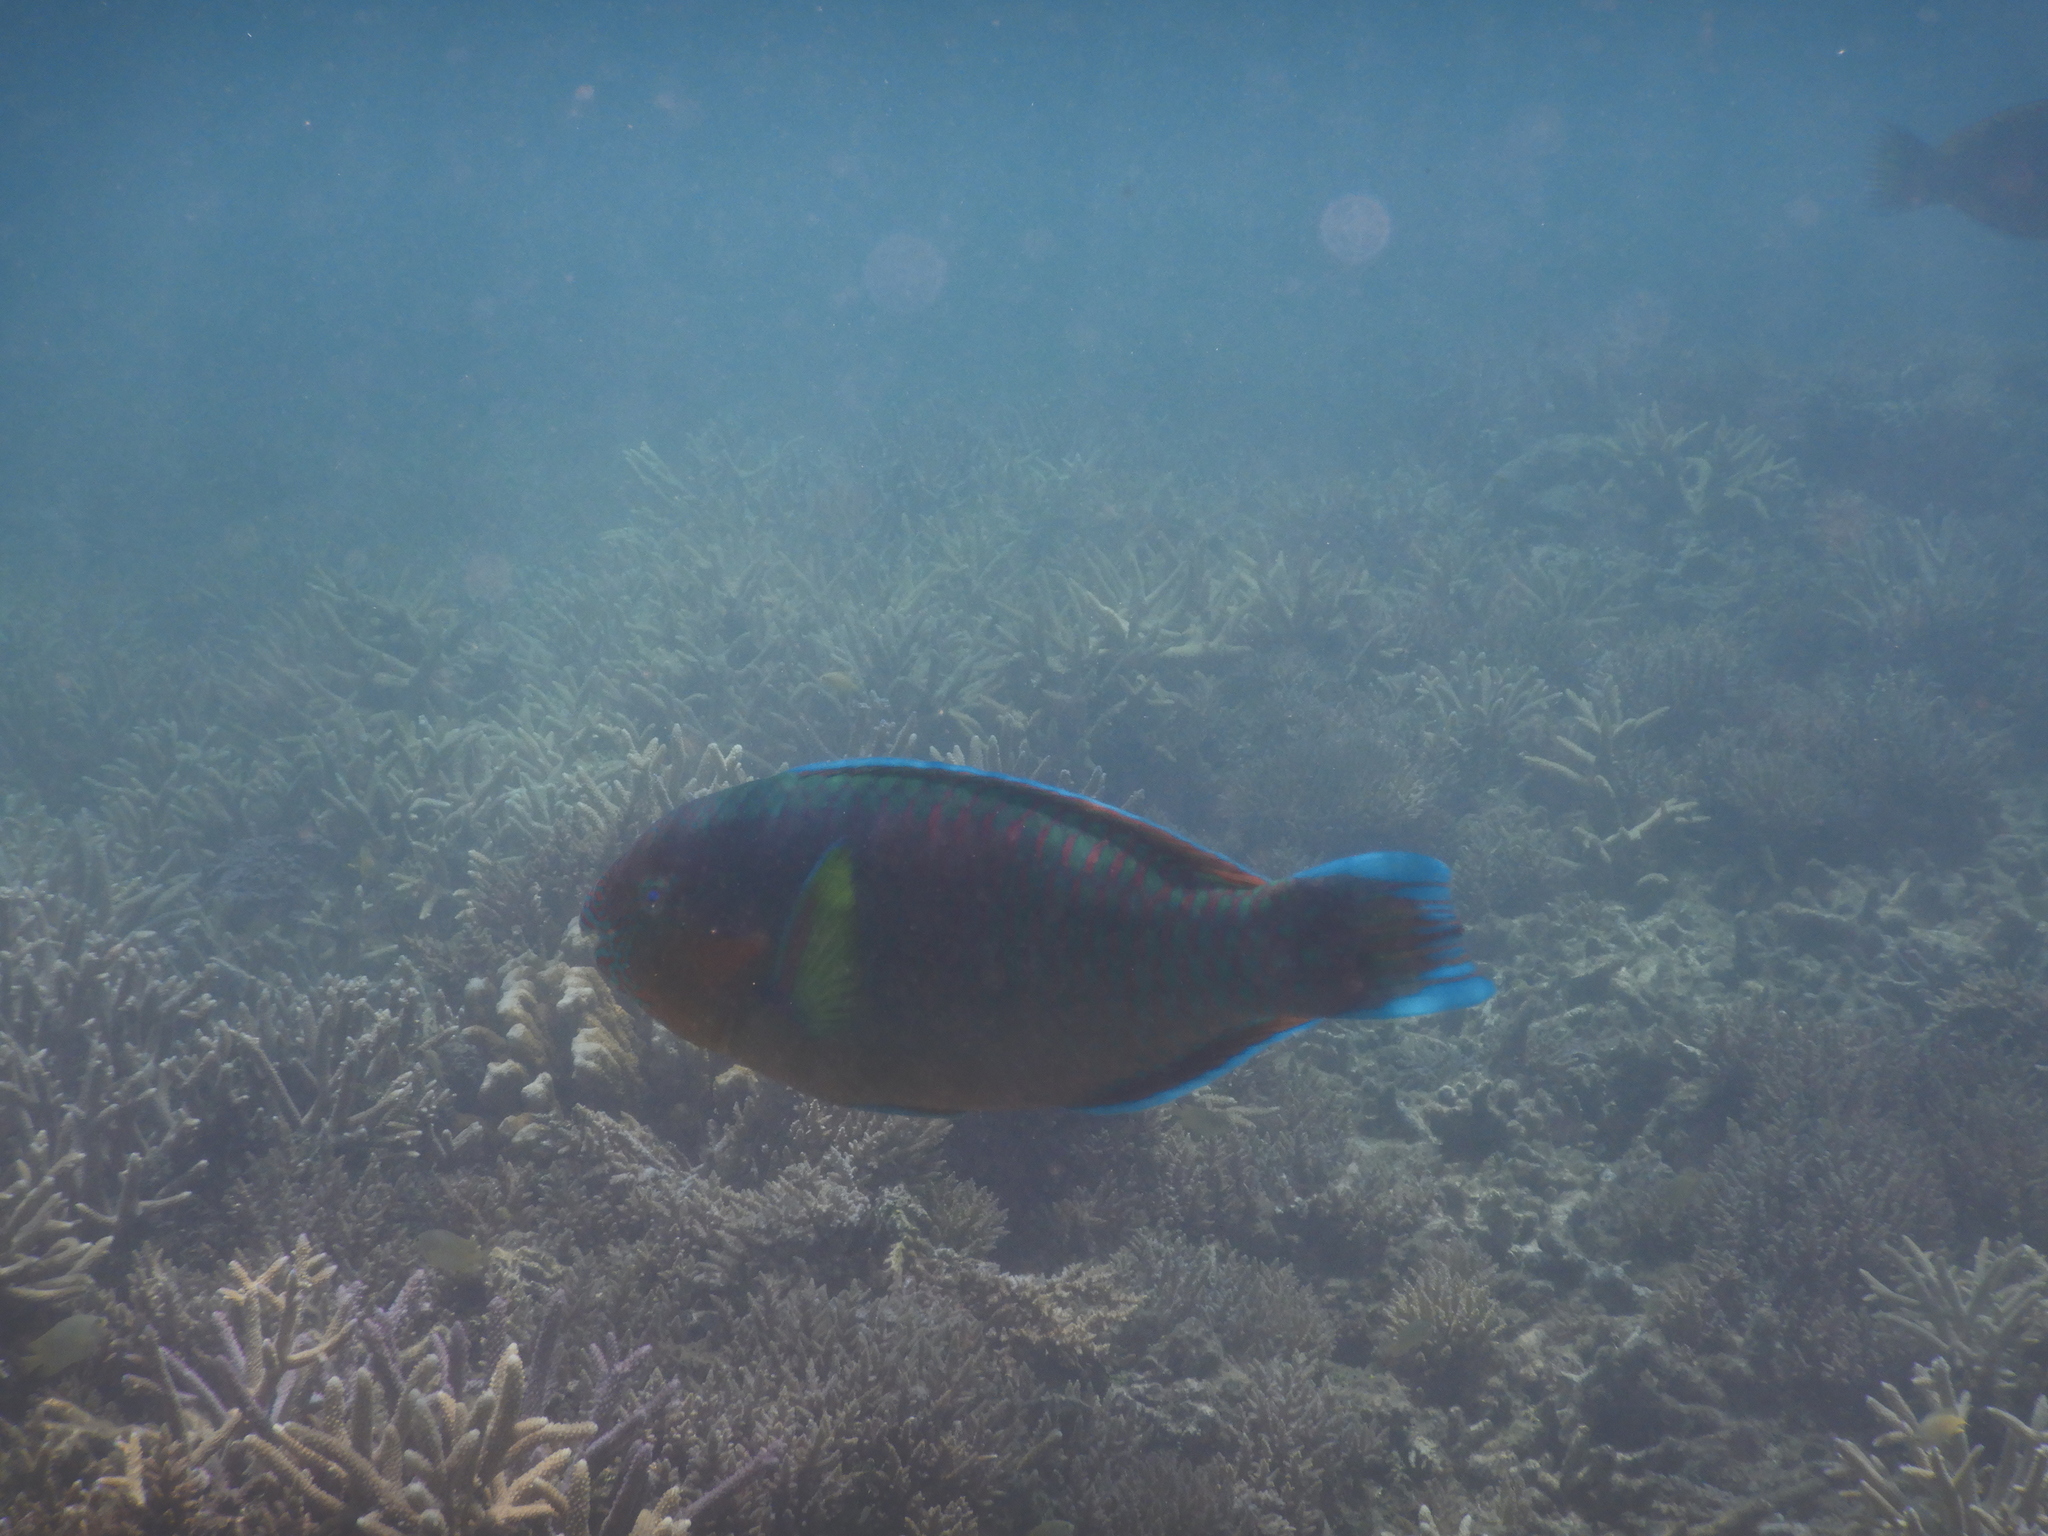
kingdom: Animalia
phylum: Chordata
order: Perciformes
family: Scaridae
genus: Scarus
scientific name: Scarus rivulatus
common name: Surf parrotfish
